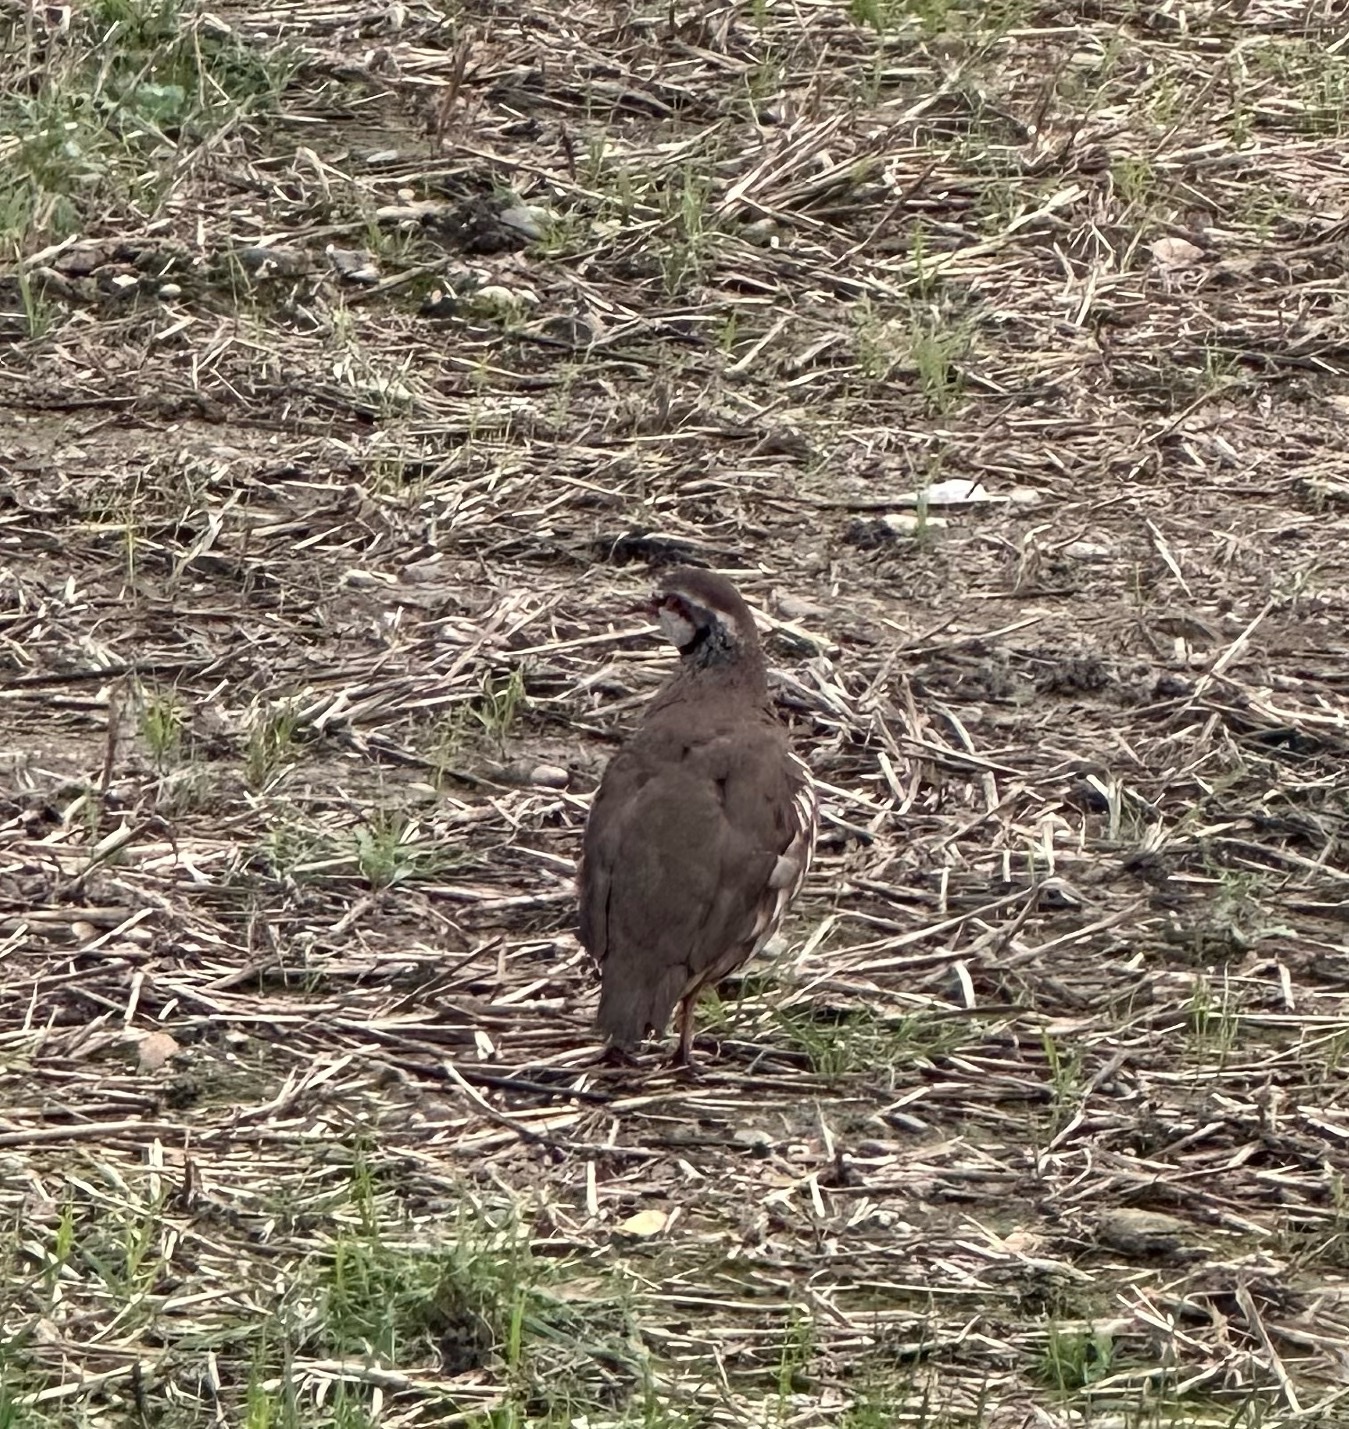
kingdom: Animalia
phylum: Chordata
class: Aves
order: Galliformes
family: Phasianidae
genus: Alectoris
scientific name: Alectoris rufa
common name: Red-legged partridge
